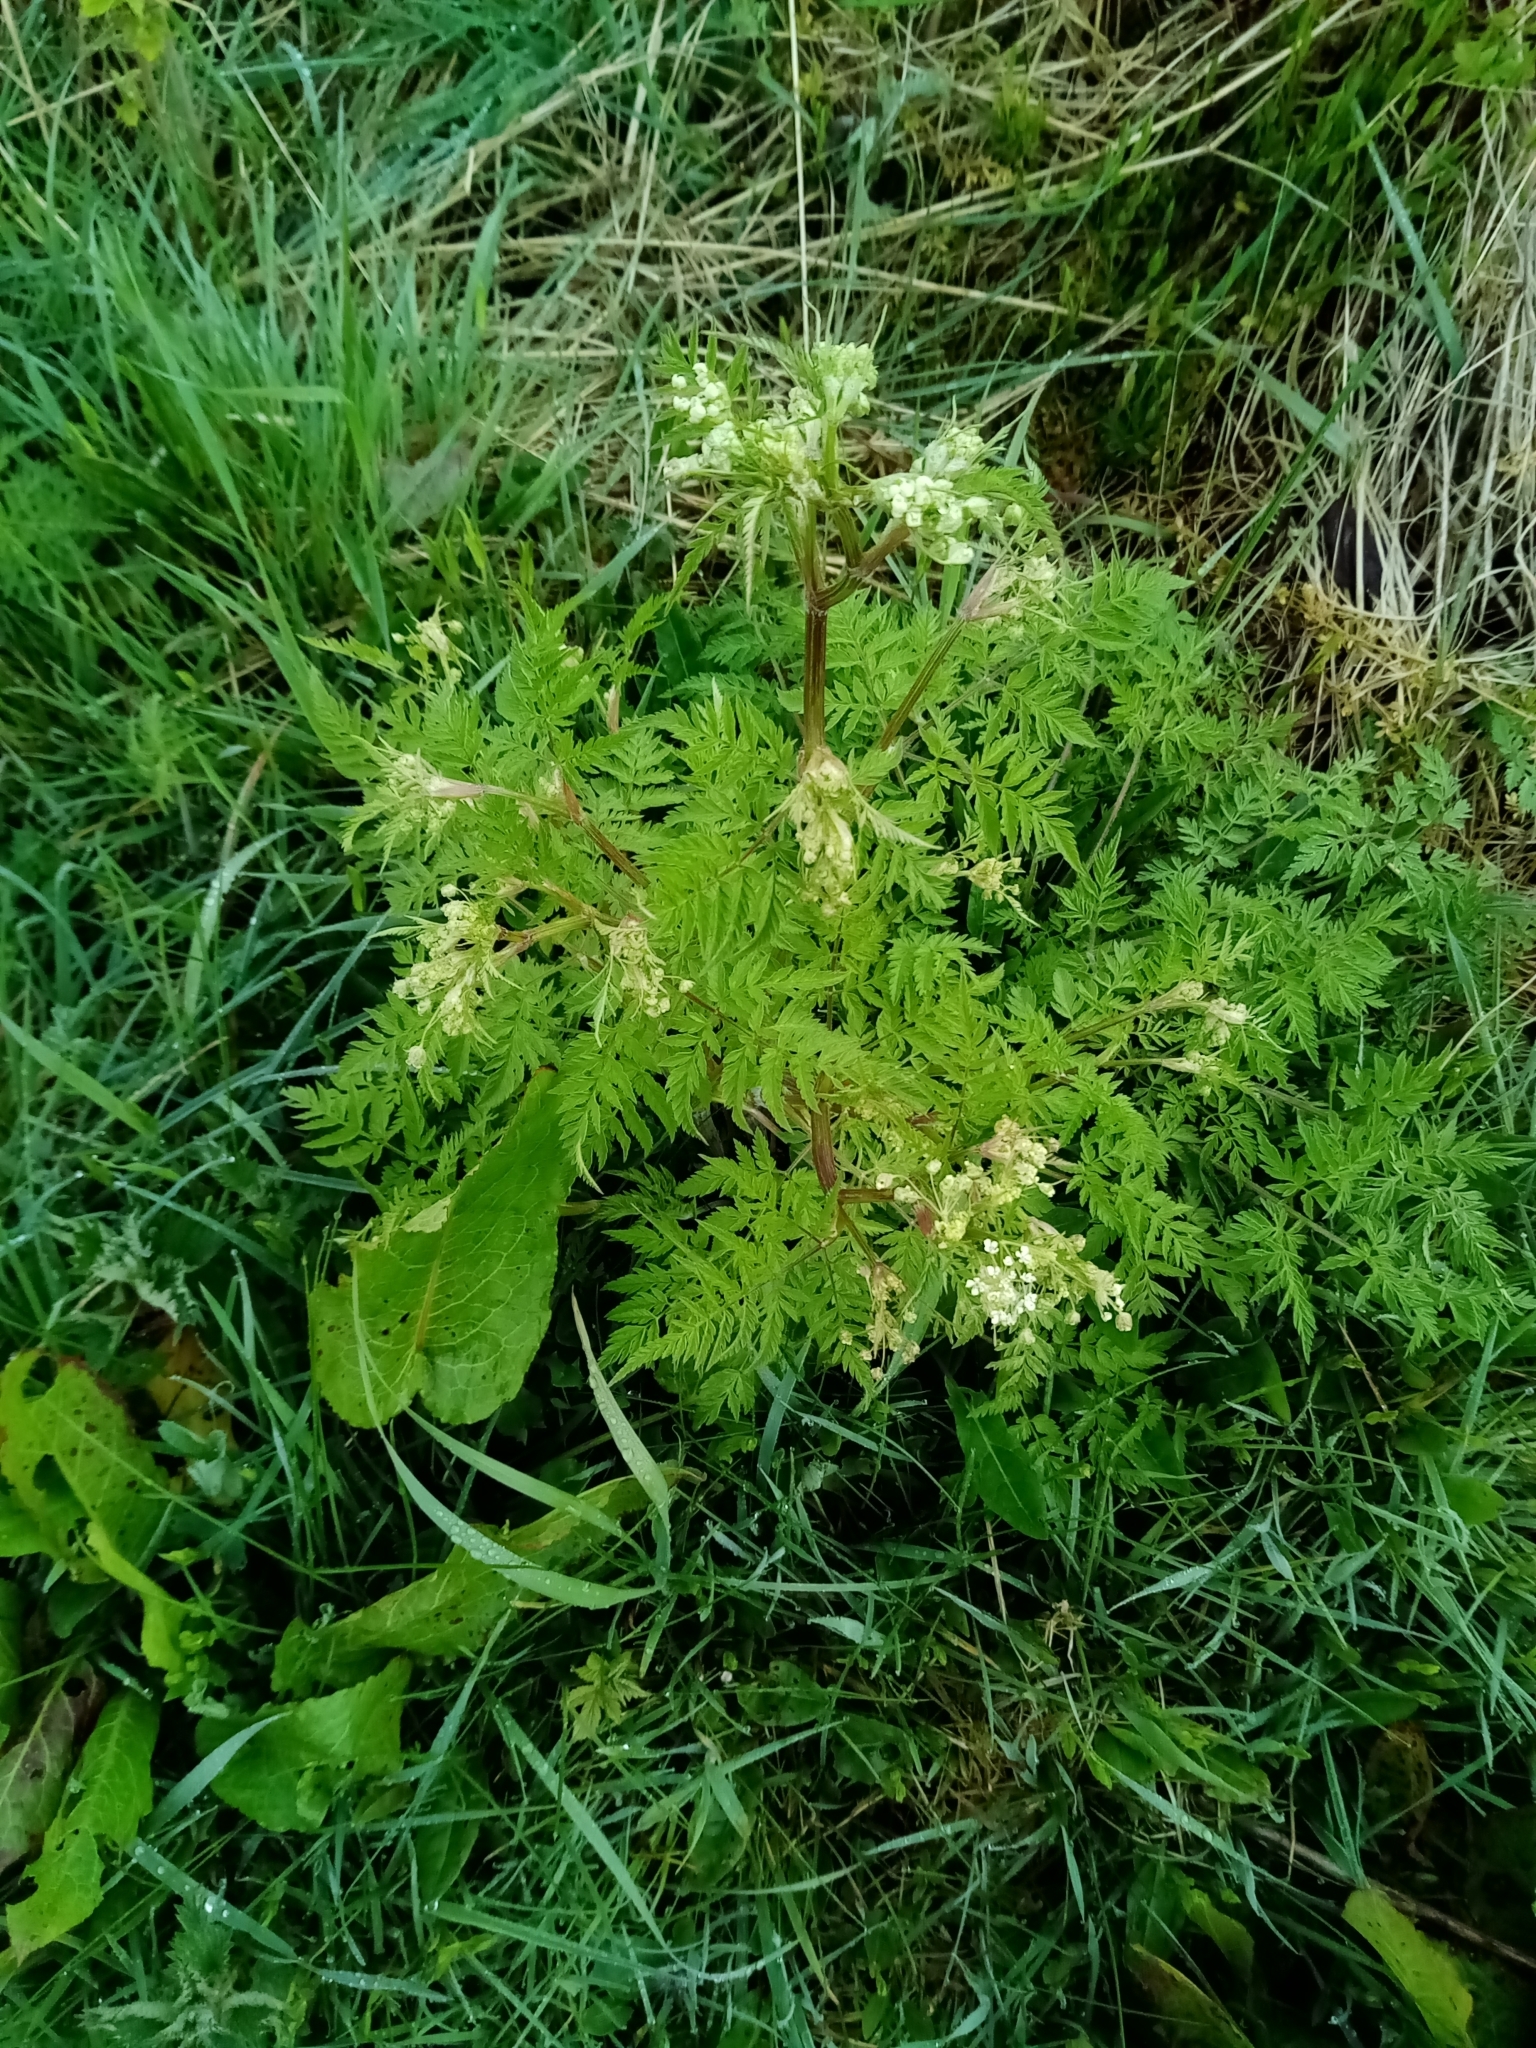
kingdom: Plantae
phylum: Tracheophyta
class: Magnoliopsida
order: Apiales
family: Apiaceae
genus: Anthriscus
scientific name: Anthriscus sylvestris
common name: Cow parsley
